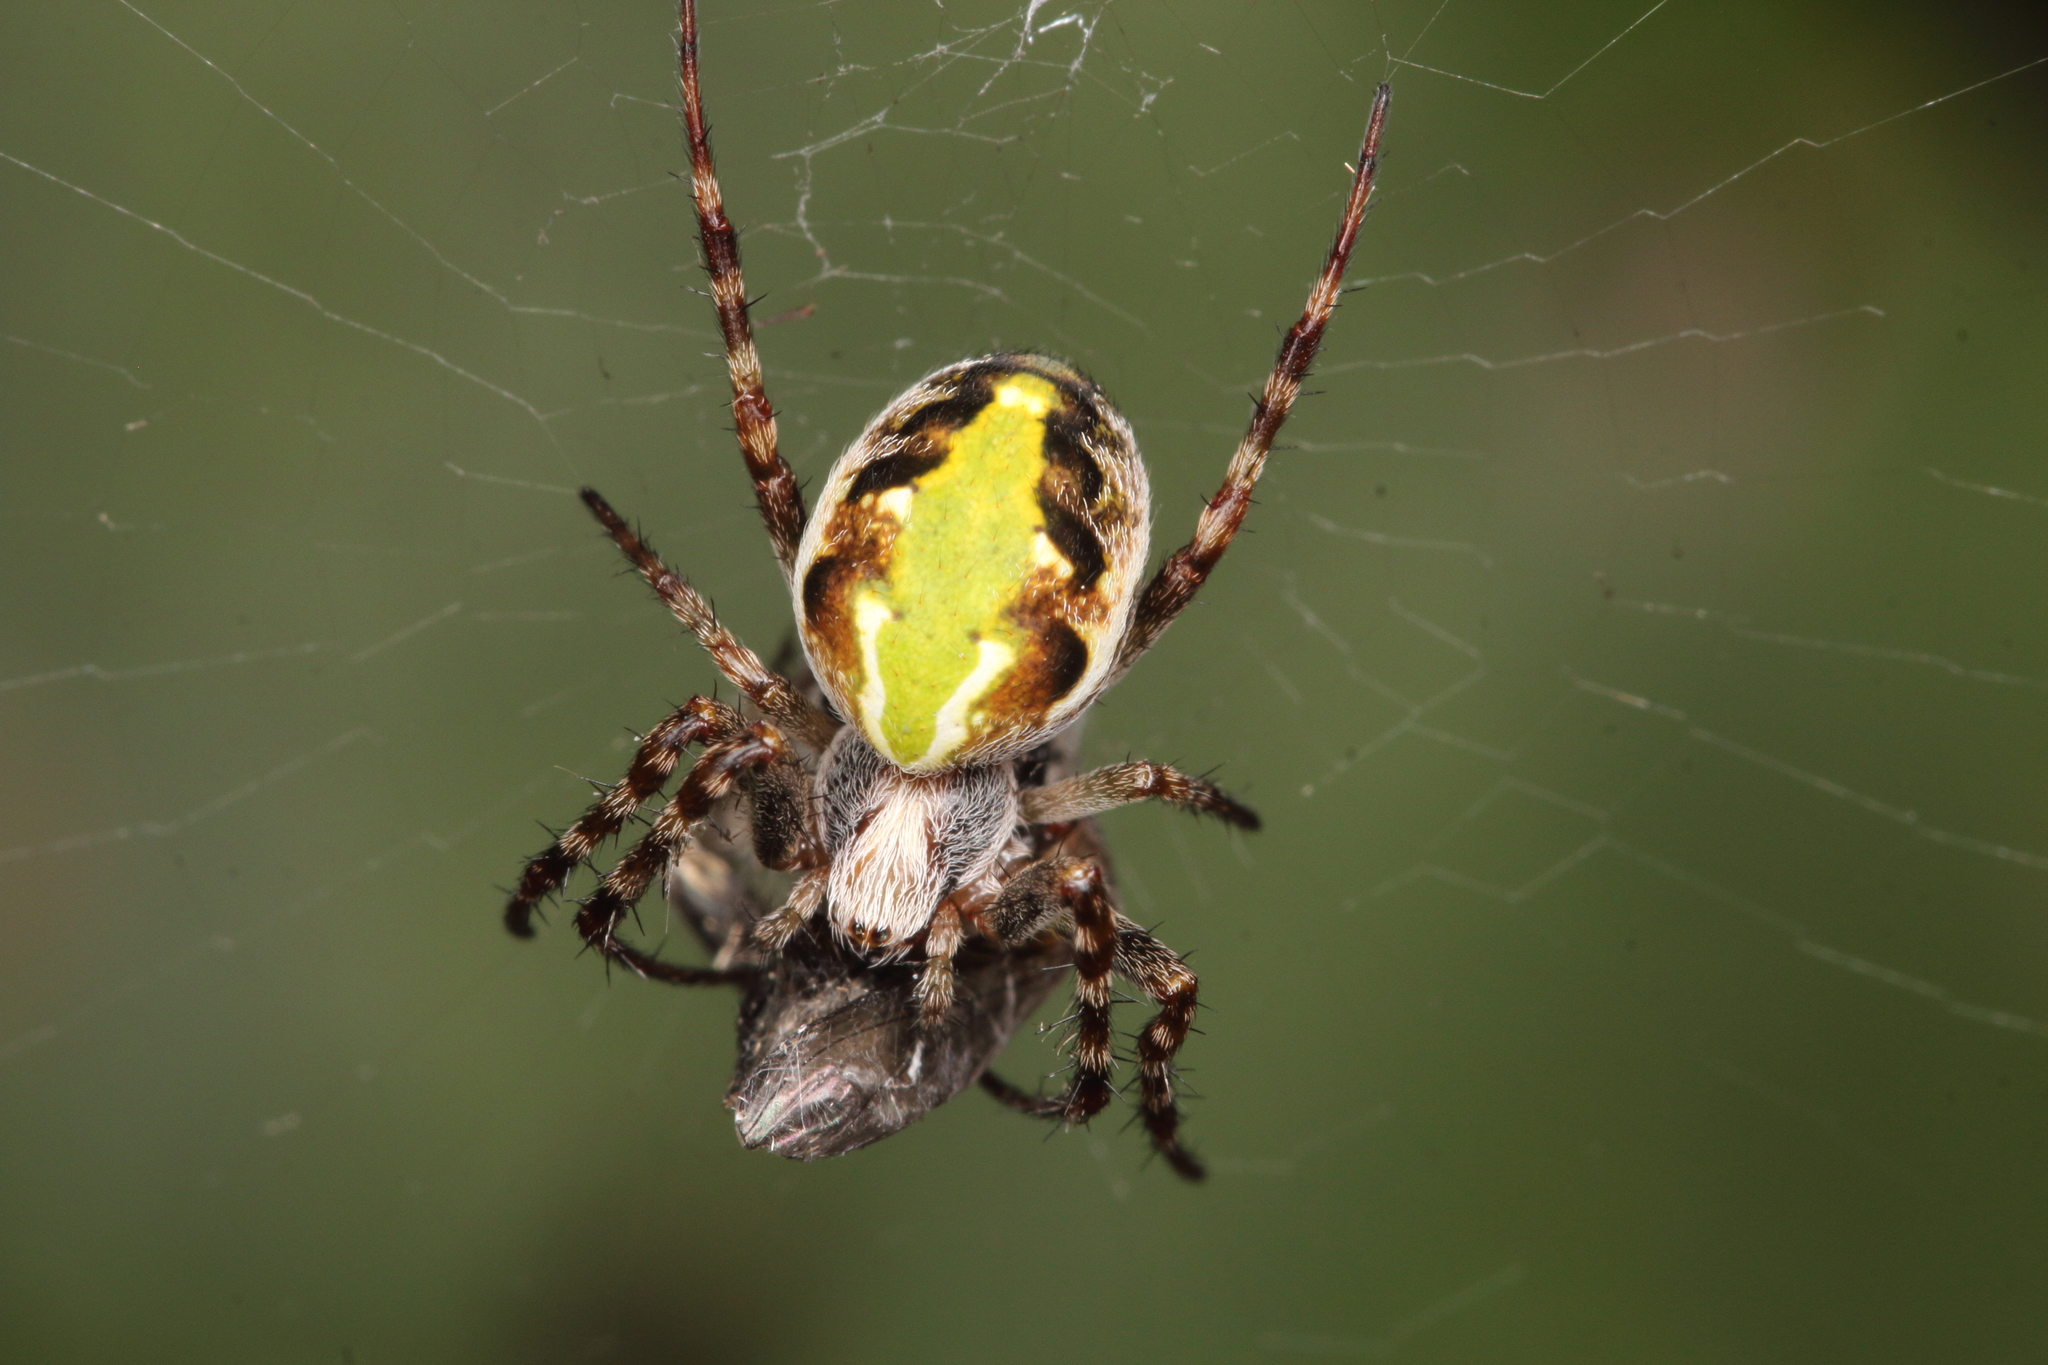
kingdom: Animalia
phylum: Arthropoda
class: Arachnida
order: Araneae
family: Araneidae
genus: Novaranea
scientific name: Novaranea queribunda
